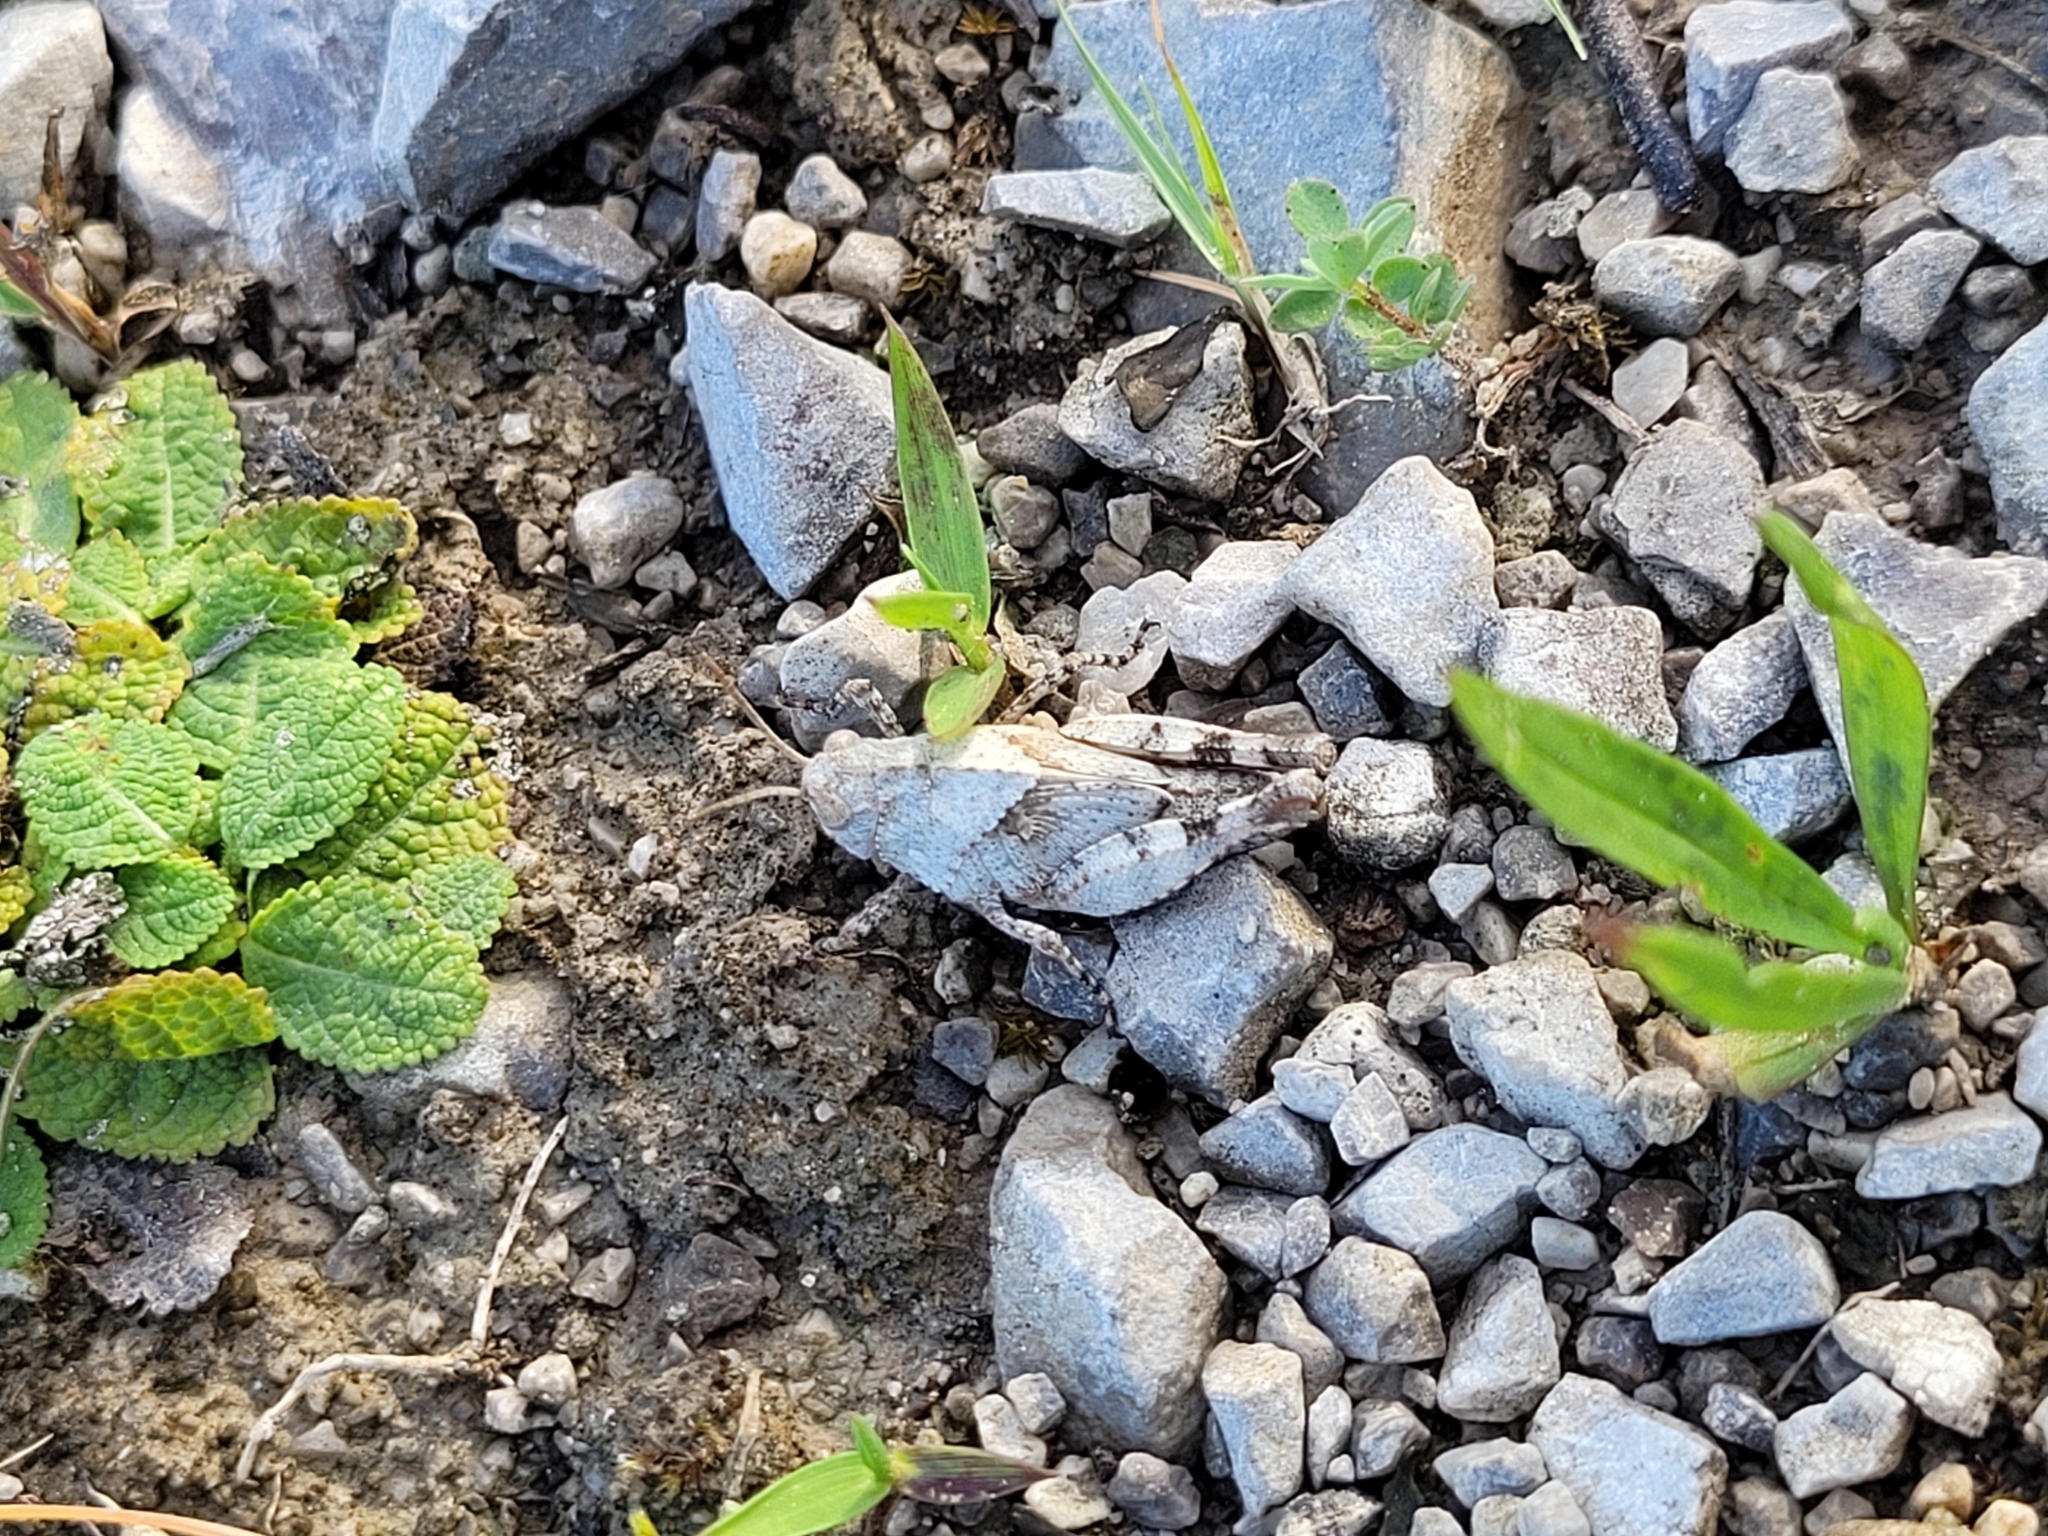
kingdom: Animalia
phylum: Arthropoda
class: Insecta
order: Orthoptera
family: Acrididae
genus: Oedipoda
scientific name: Oedipoda caerulescens
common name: Blue-winged grasshopper
